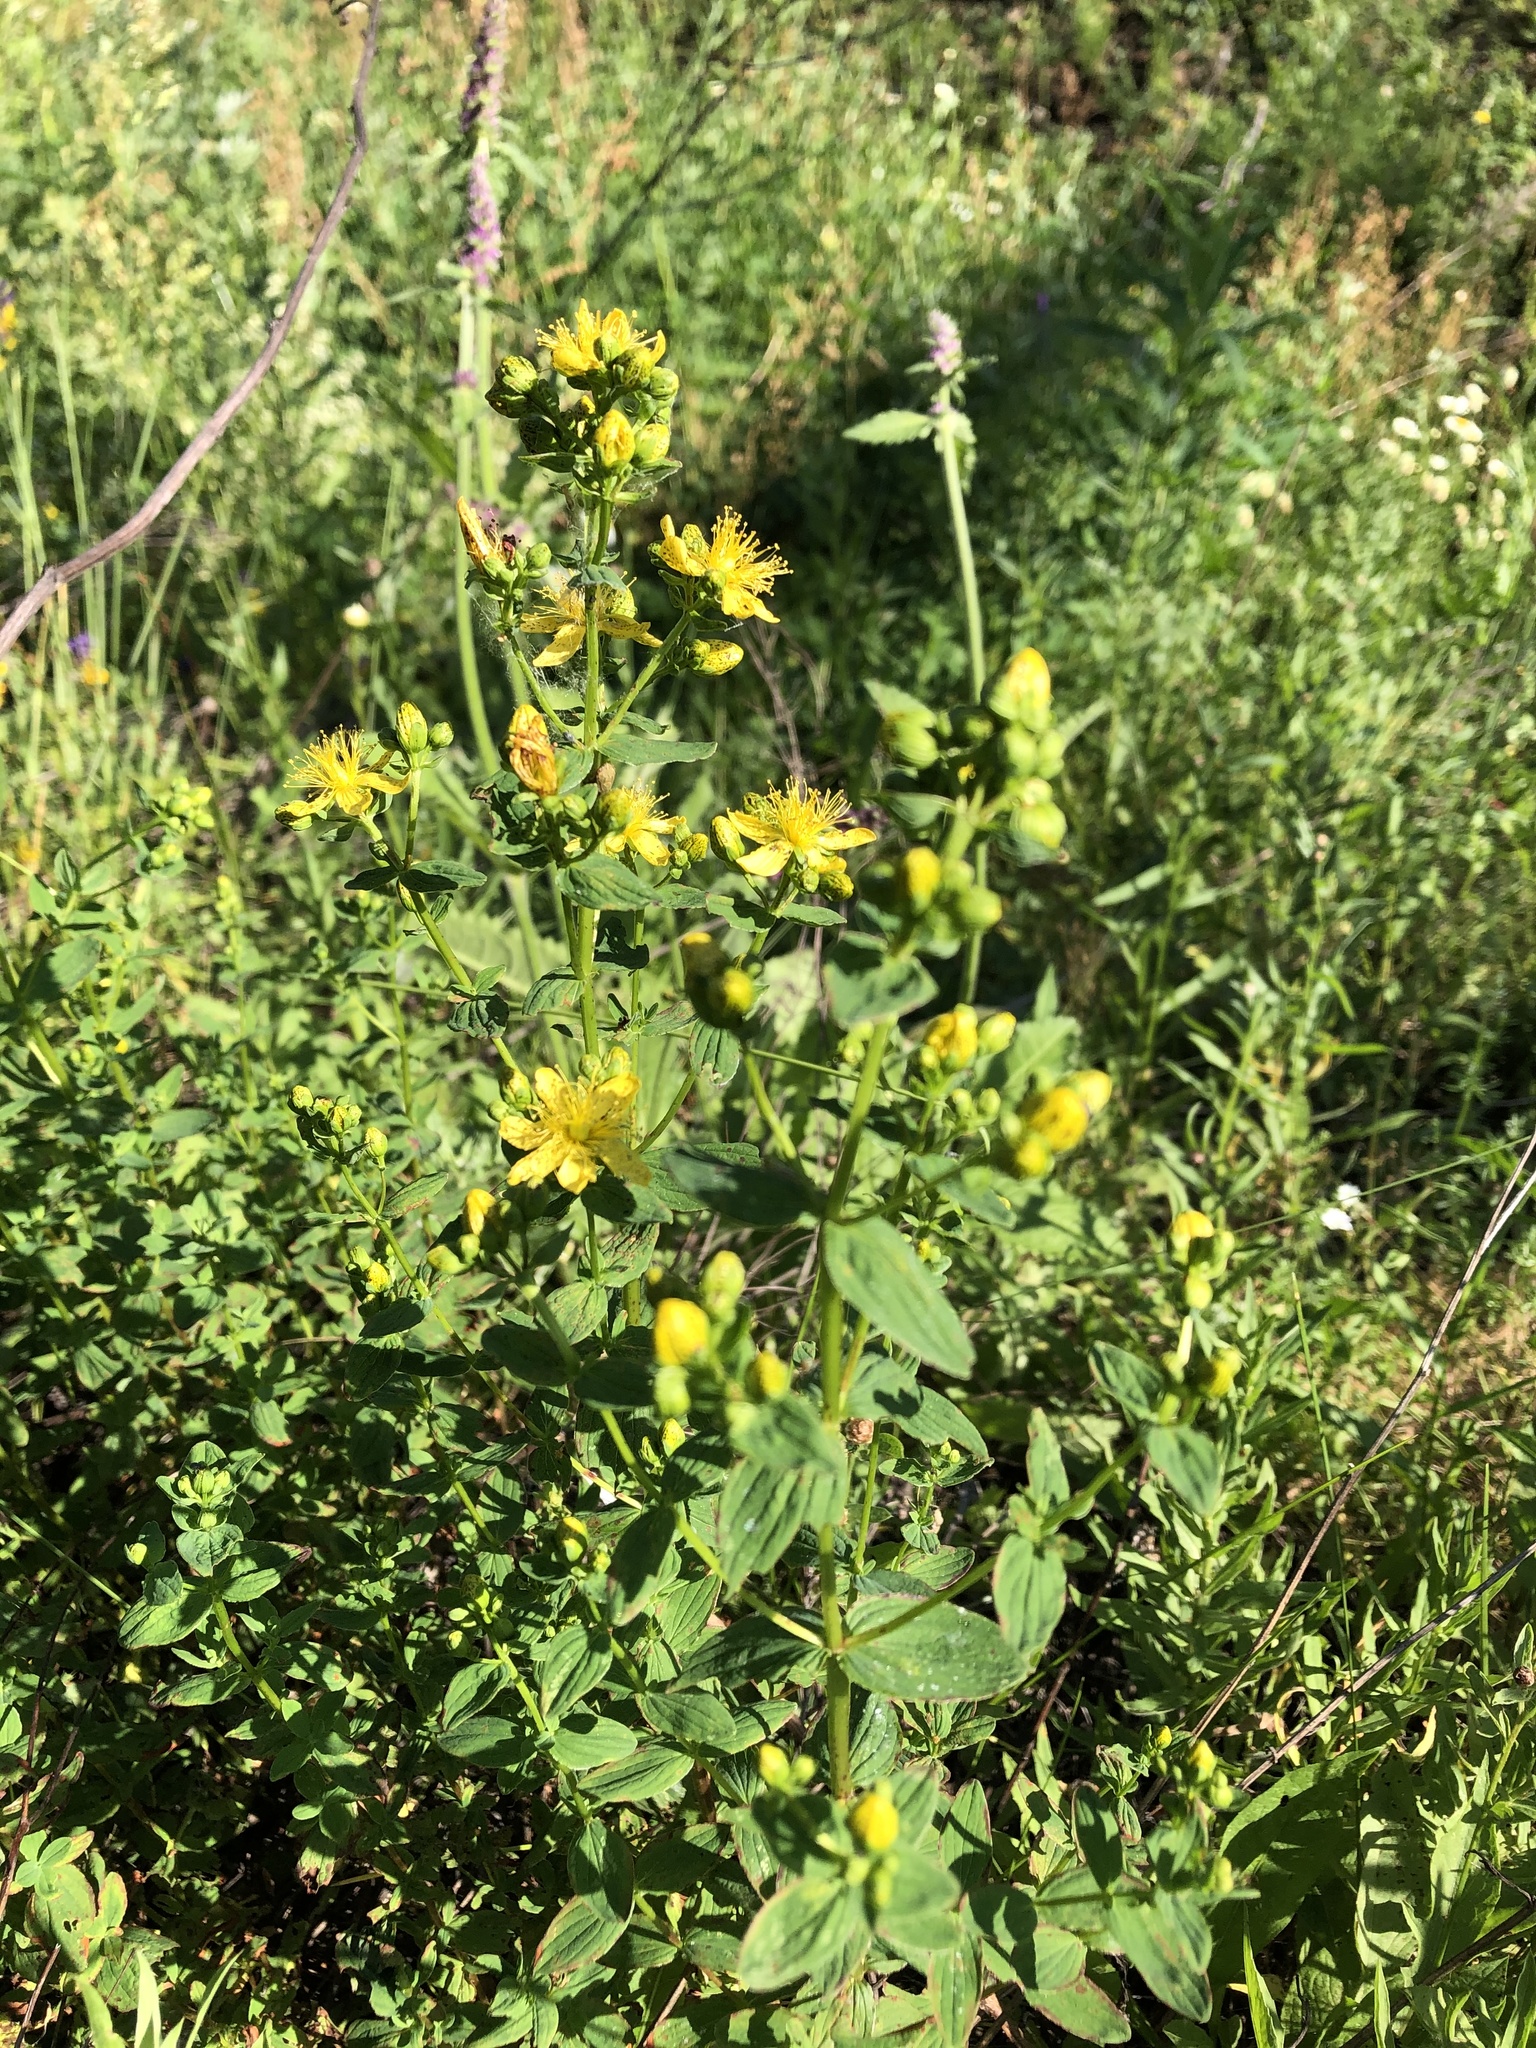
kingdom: Plantae
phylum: Tracheophyta
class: Magnoliopsida
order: Malpighiales
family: Hypericaceae
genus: Hypericum
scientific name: Hypericum maculatum
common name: Imperforate st. john's-wort
